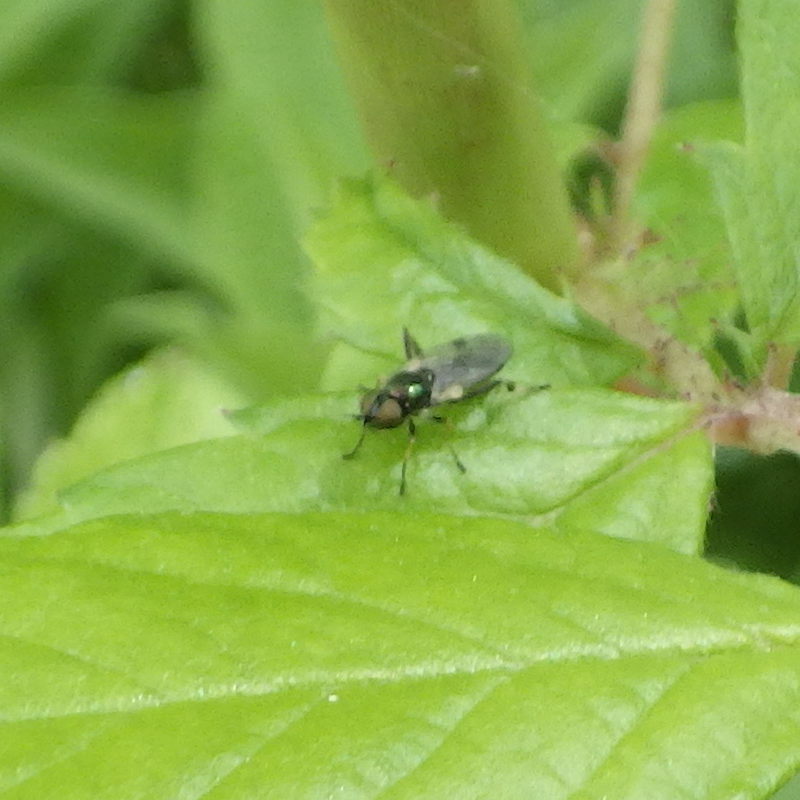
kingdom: Animalia
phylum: Arthropoda
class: Insecta
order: Diptera
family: Stratiomyidae
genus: Actina
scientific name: Actina viridis
